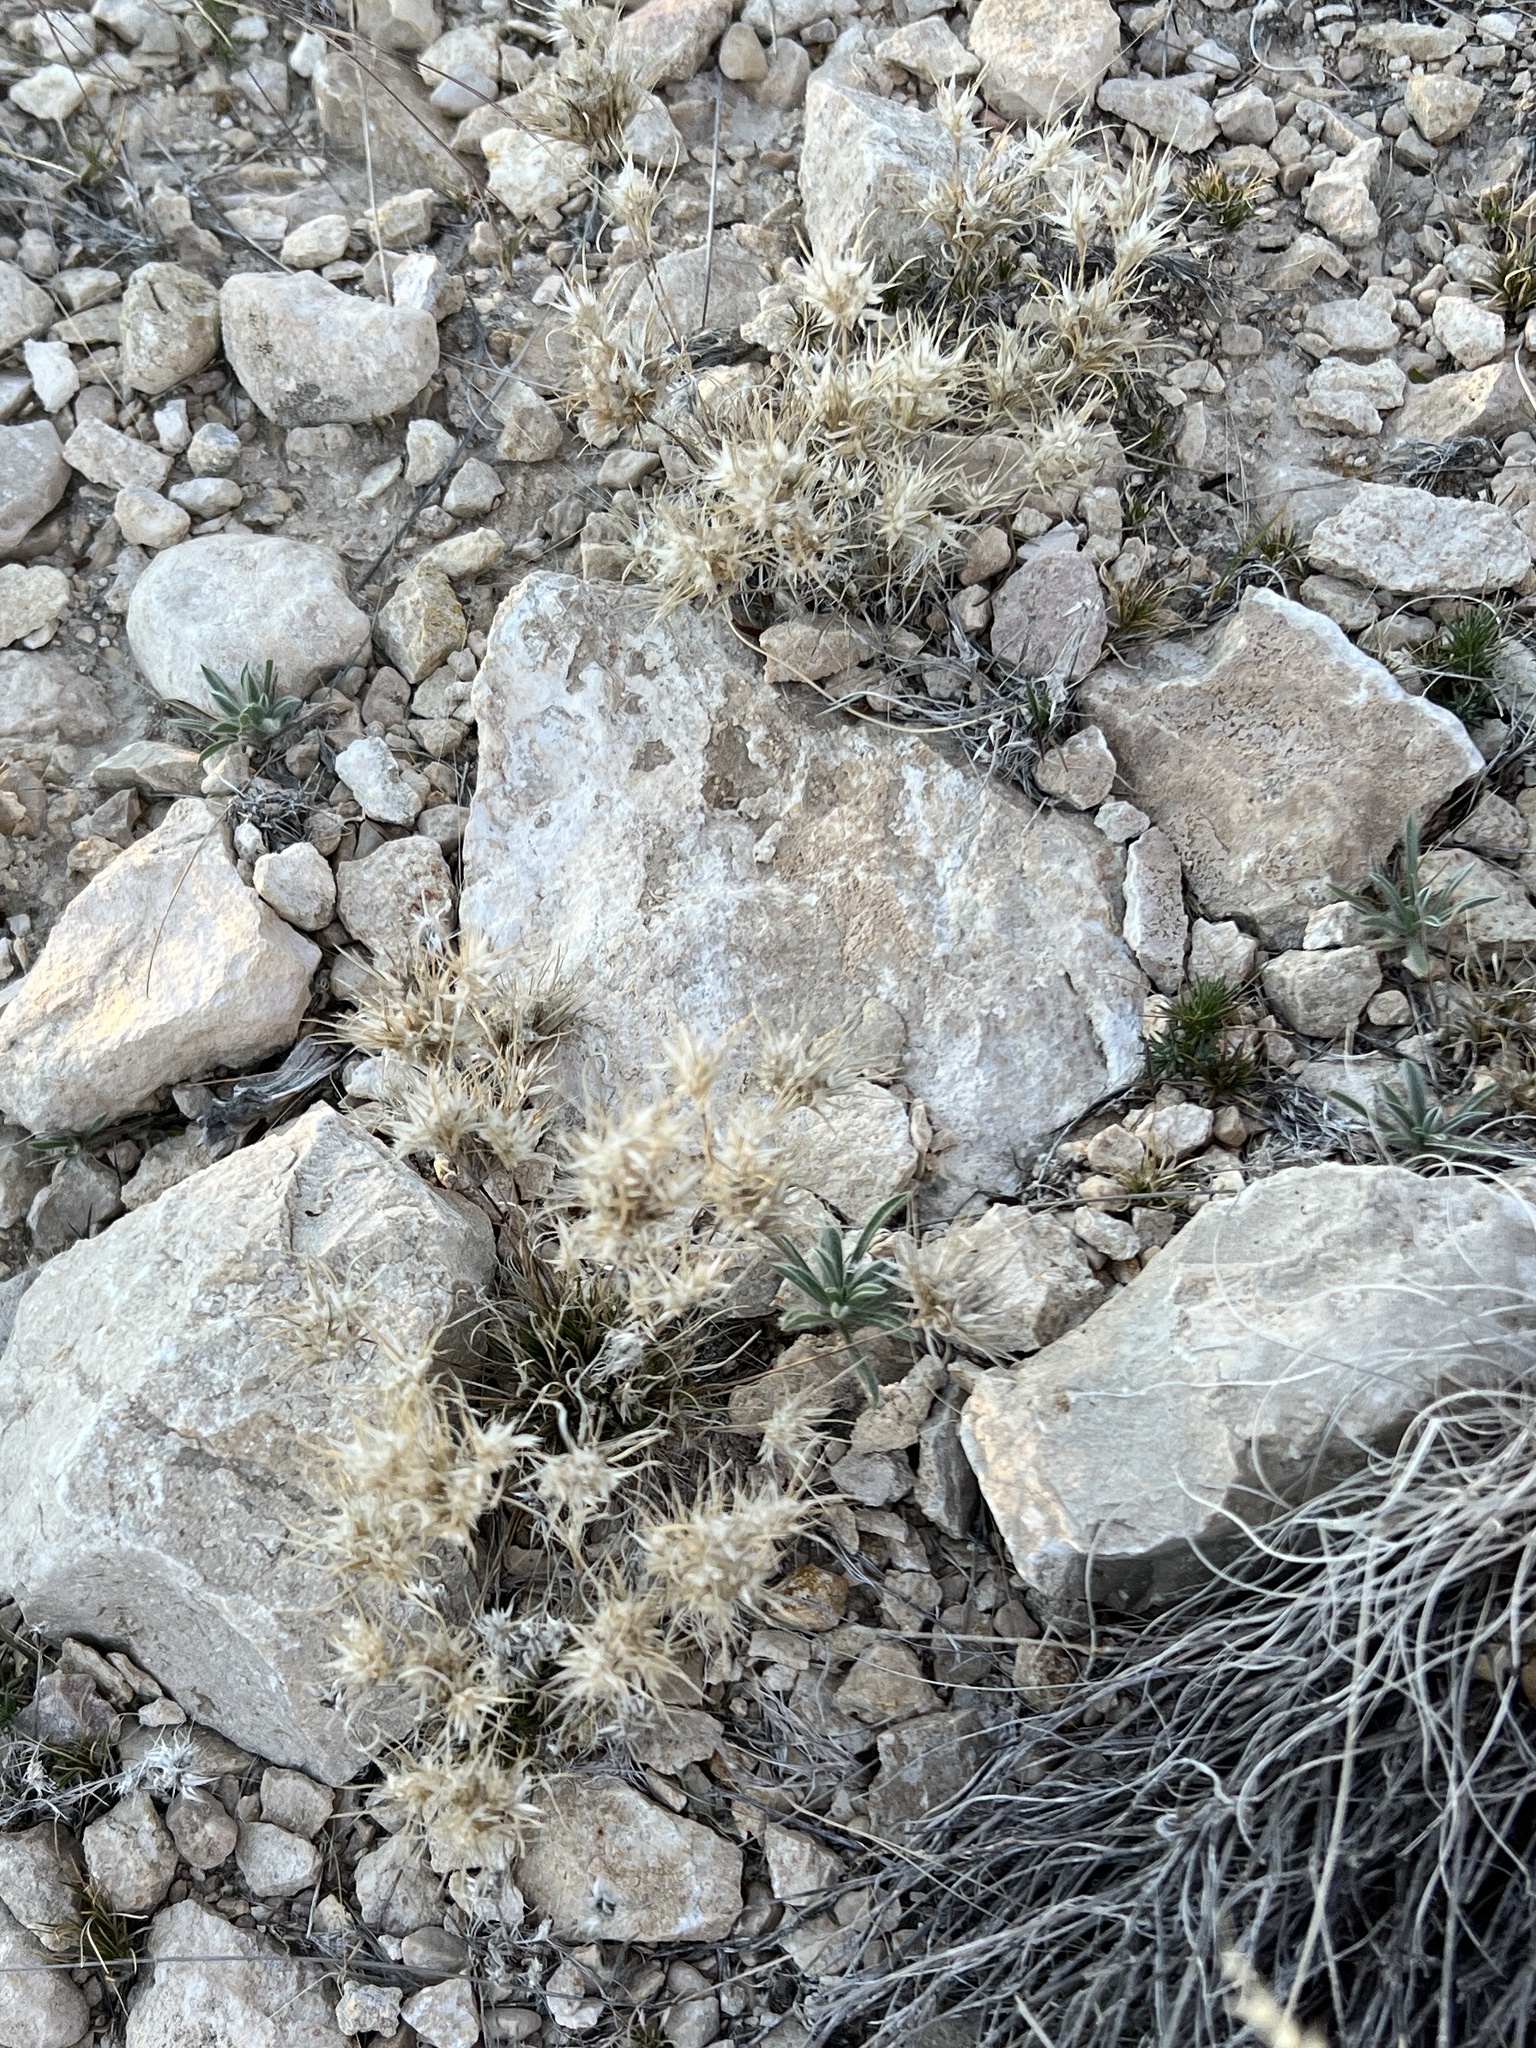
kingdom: Plantae
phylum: Tracheophyta
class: Liliopsida
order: Poales
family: Poaceae
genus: Dasyochloa
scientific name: Dasyochloa pulchella
